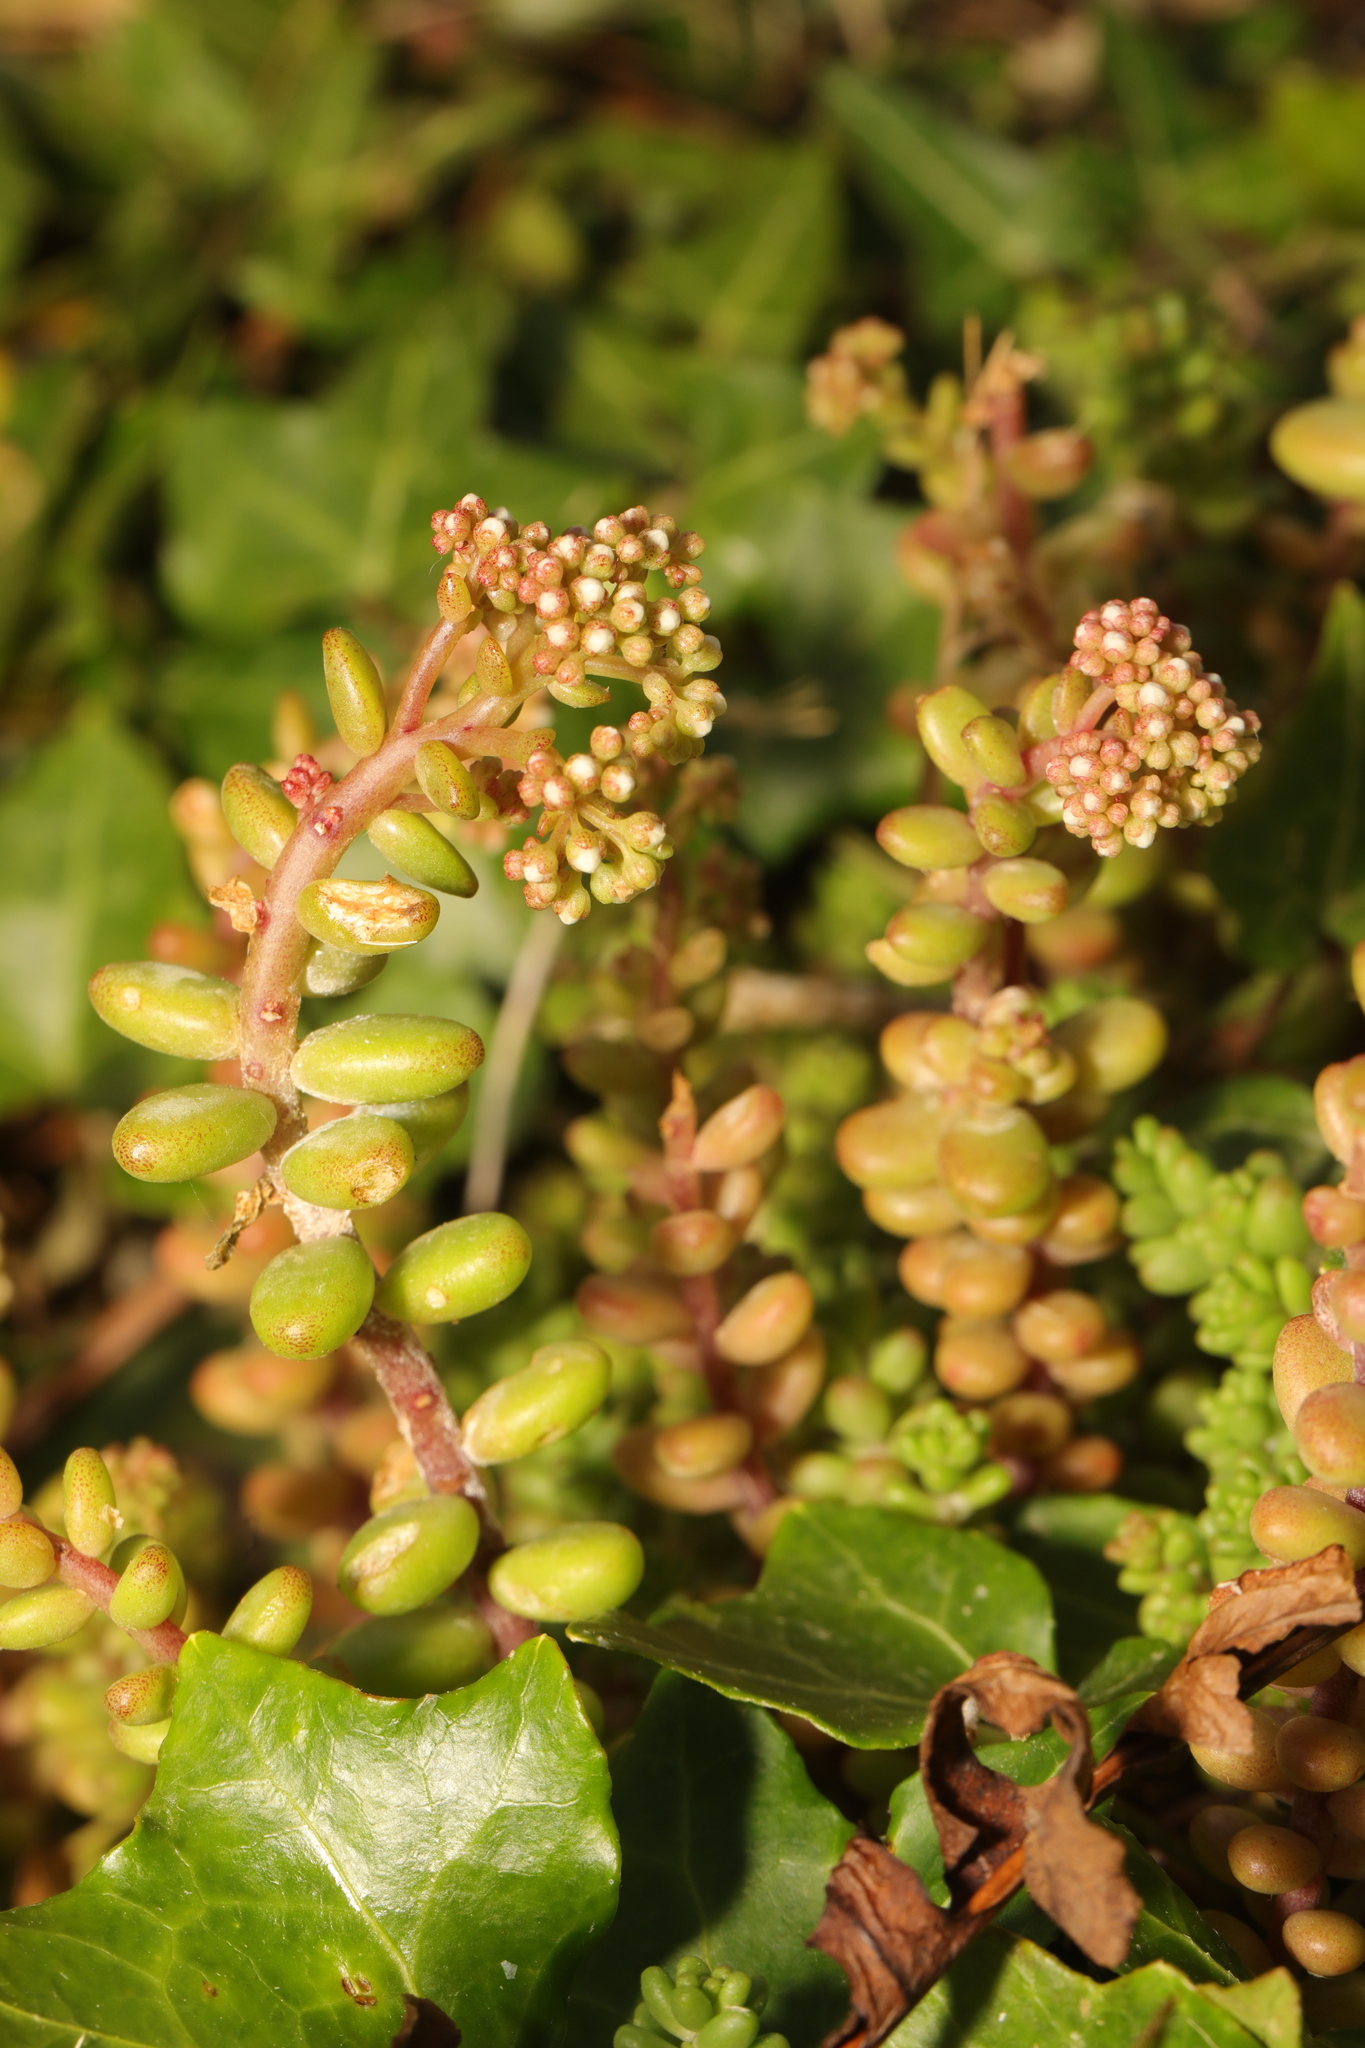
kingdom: Plantae
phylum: Tracheophyta
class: Magnoliopsida
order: Saxifragales
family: Crassulaceae
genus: Sedum
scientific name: Sedum album
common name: White stonecrop
